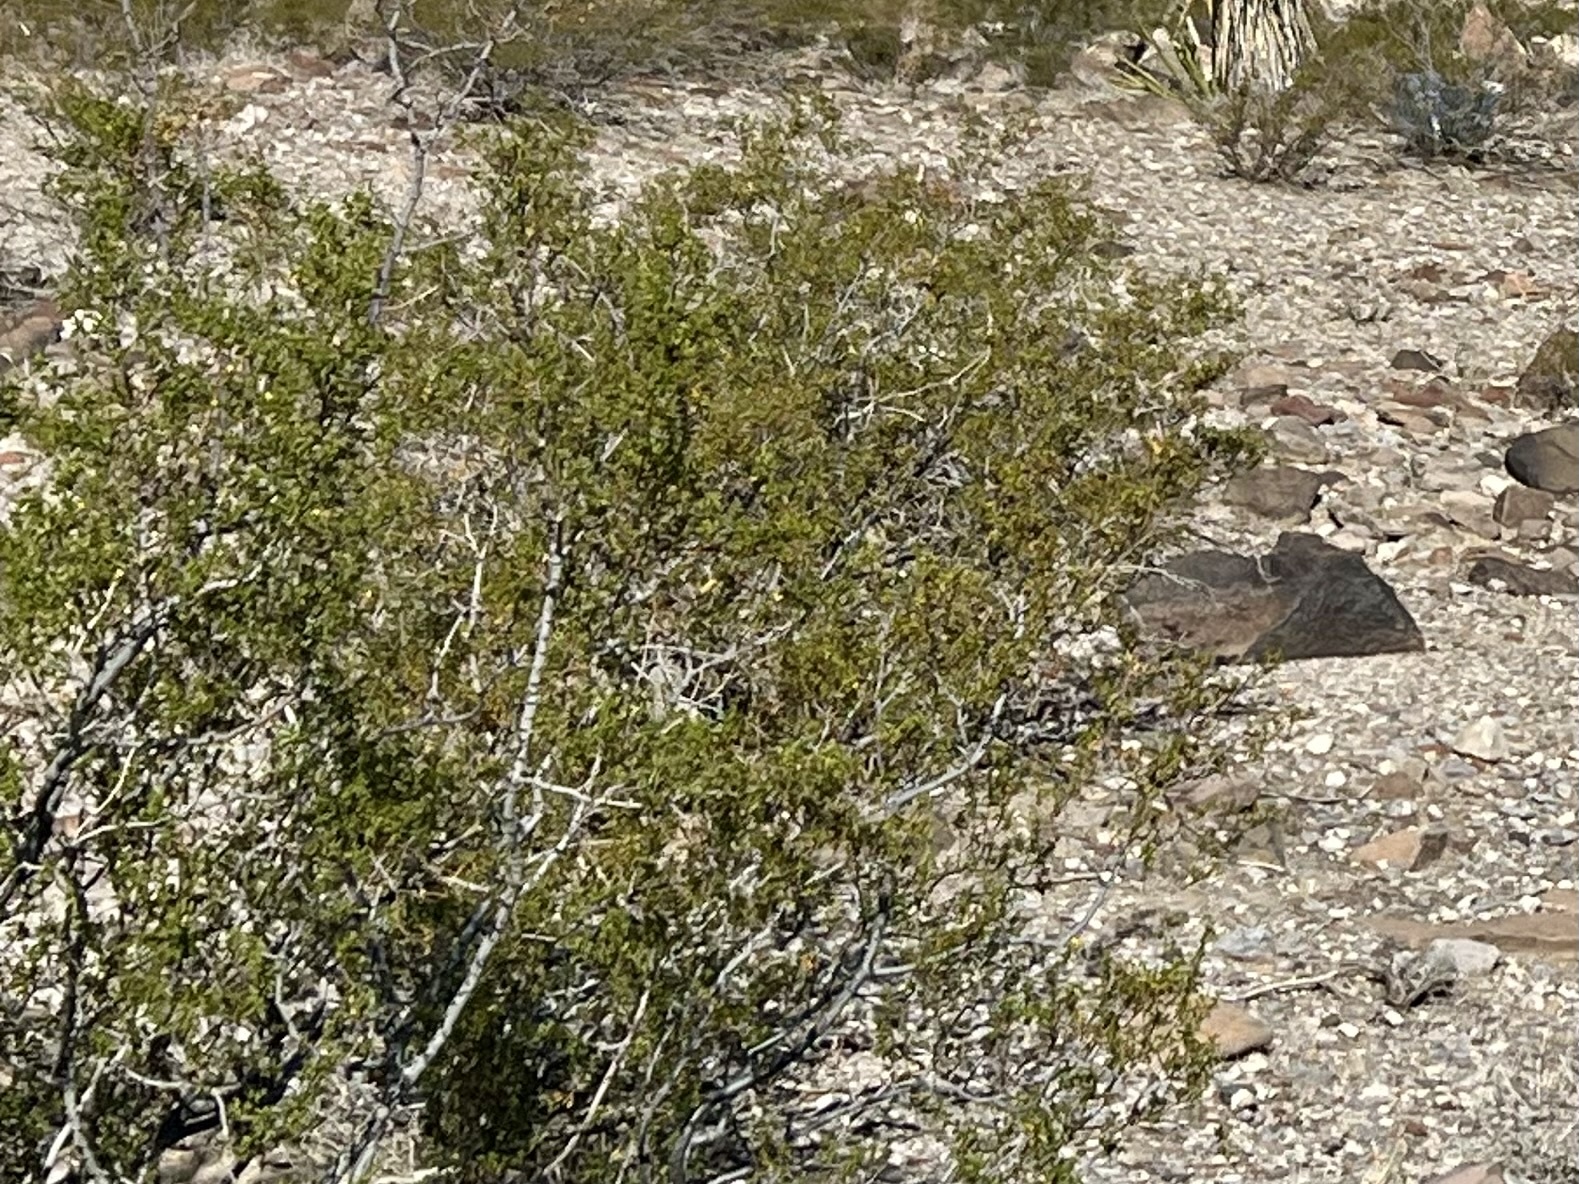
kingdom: Plantae
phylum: Tracheophyta
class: Magnoliopsida
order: Zygophyllales
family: Zygophyllaceae
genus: Larrea
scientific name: Larrea tridentata
